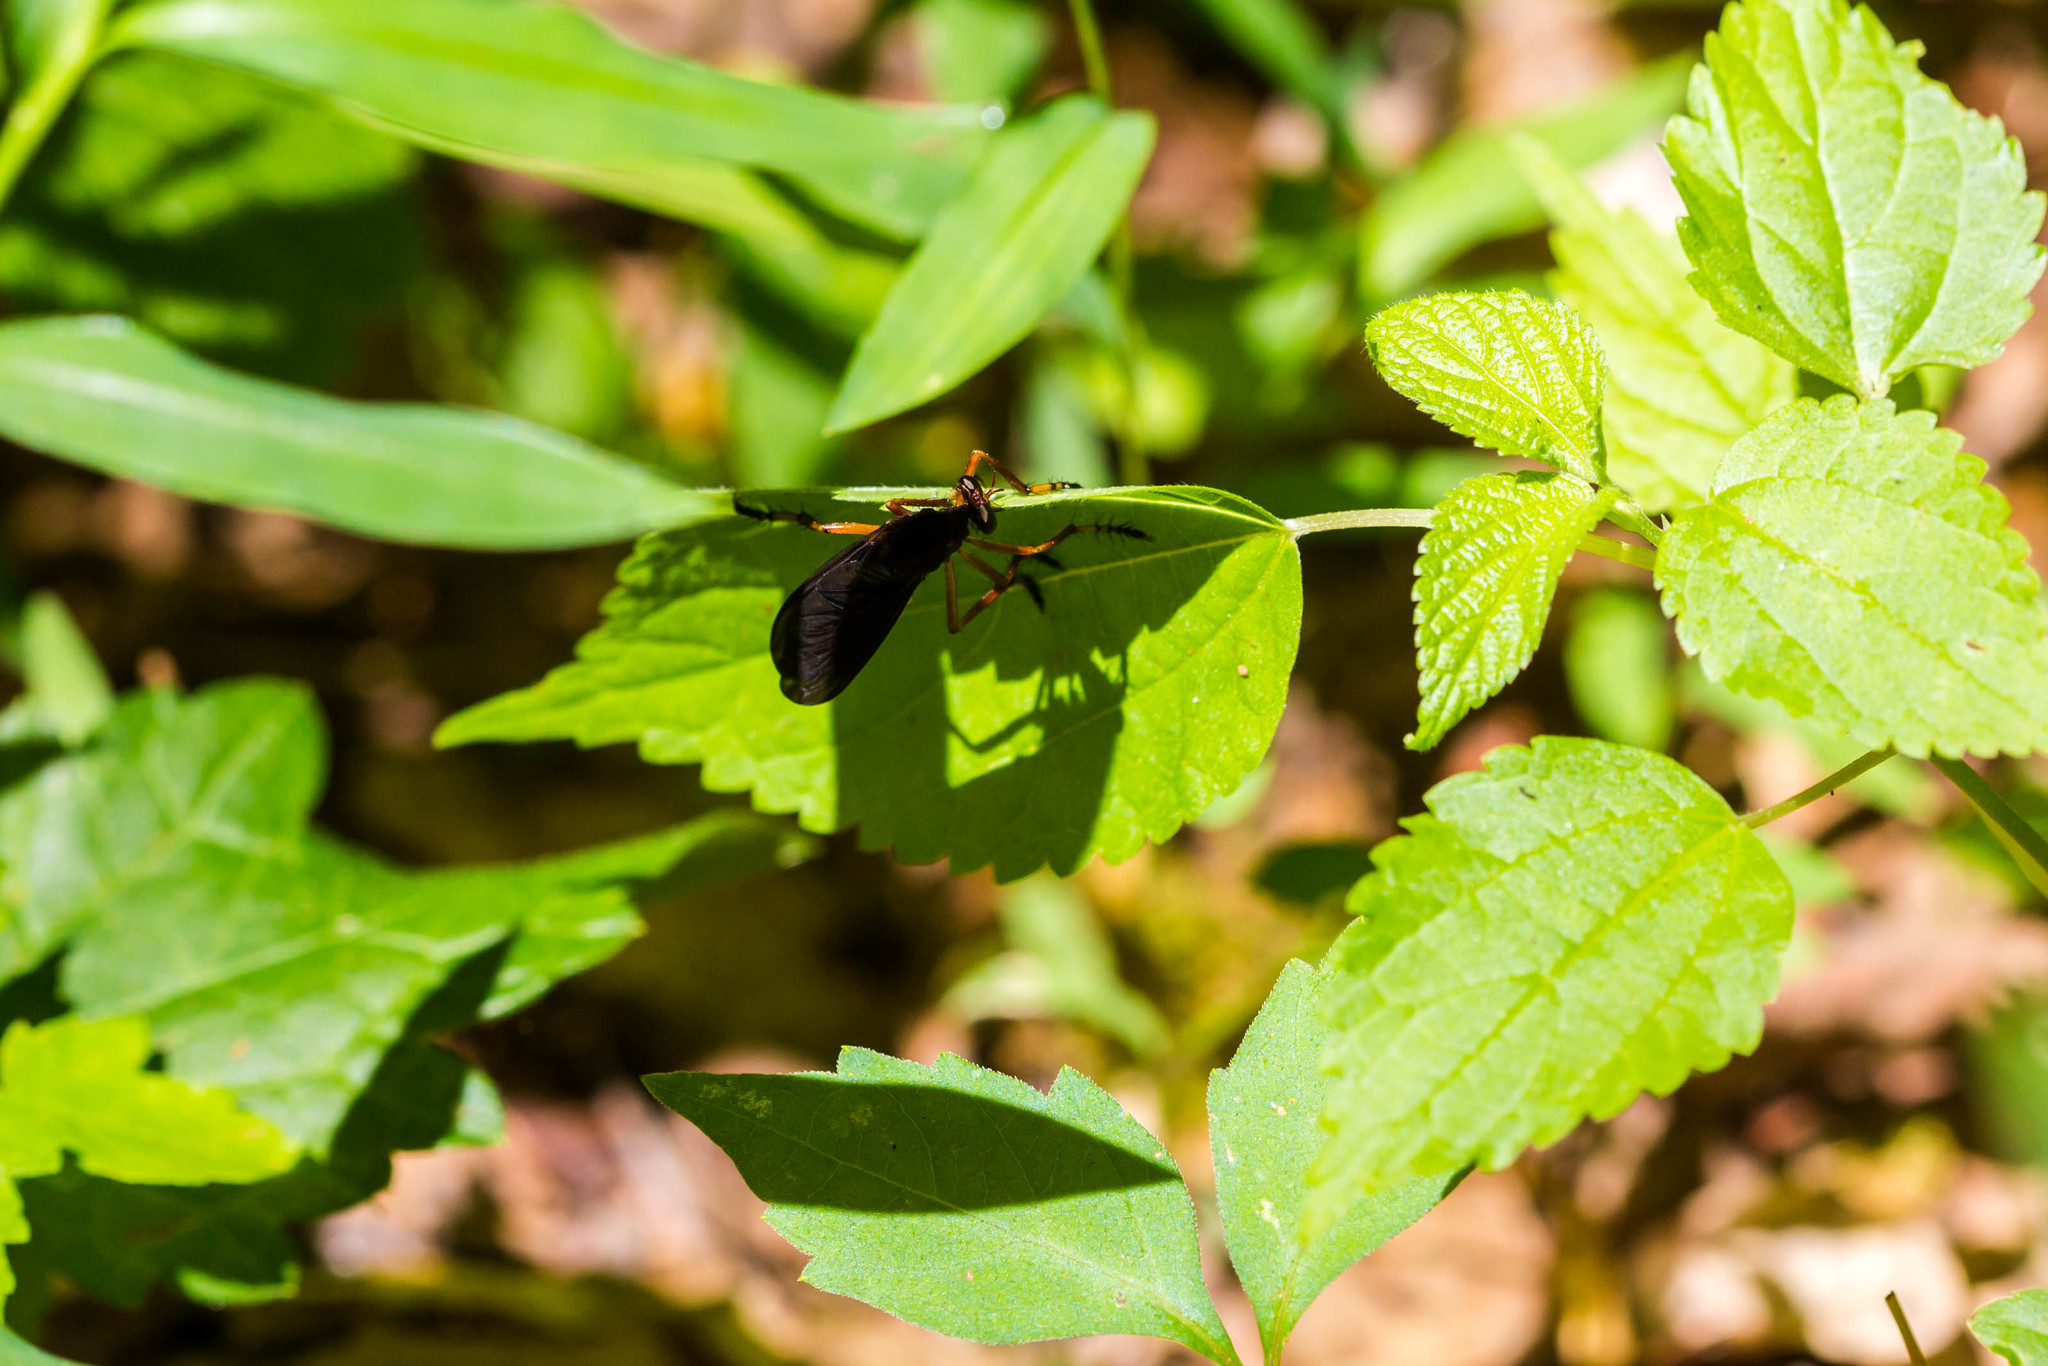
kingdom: Animalia
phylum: Arthropoda
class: Insecta
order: Diptera
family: Asilidae
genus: Diogmites
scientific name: Diogmites platypterus
